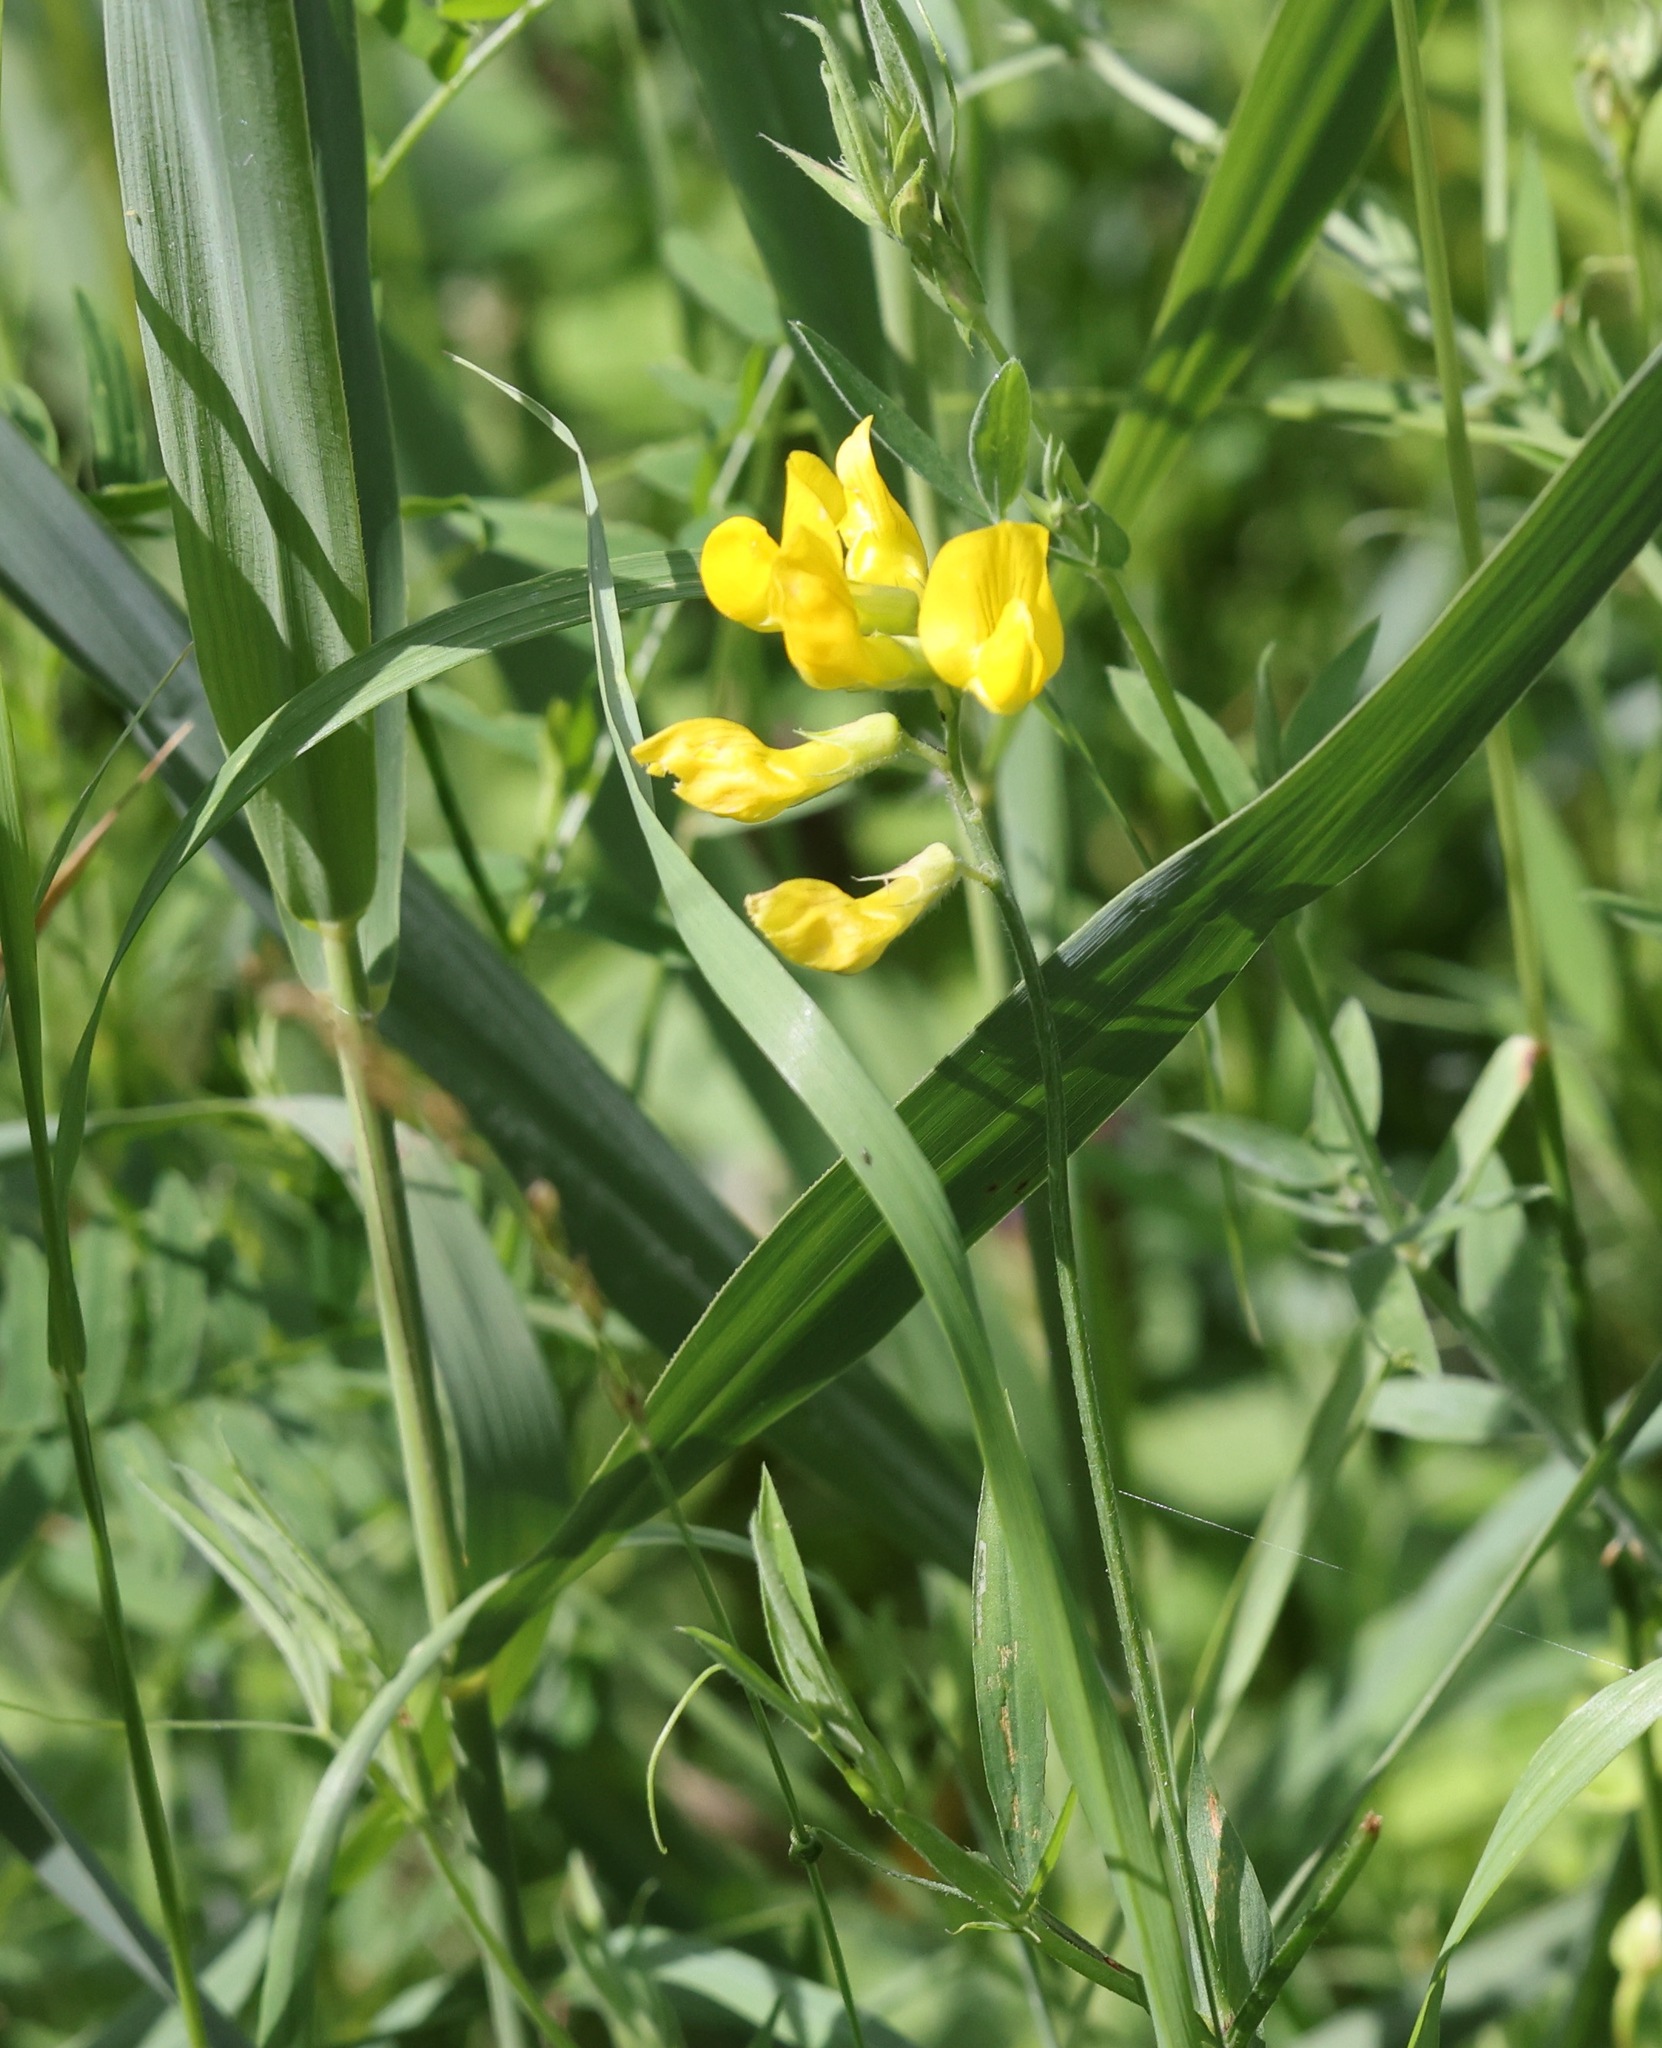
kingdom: Plantae
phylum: Tracheophyta
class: Magnoliopsida
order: Fabales
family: Fabaceae
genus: Lathyrus
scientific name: Lathyrus pratensis
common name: Meadow vetchling
